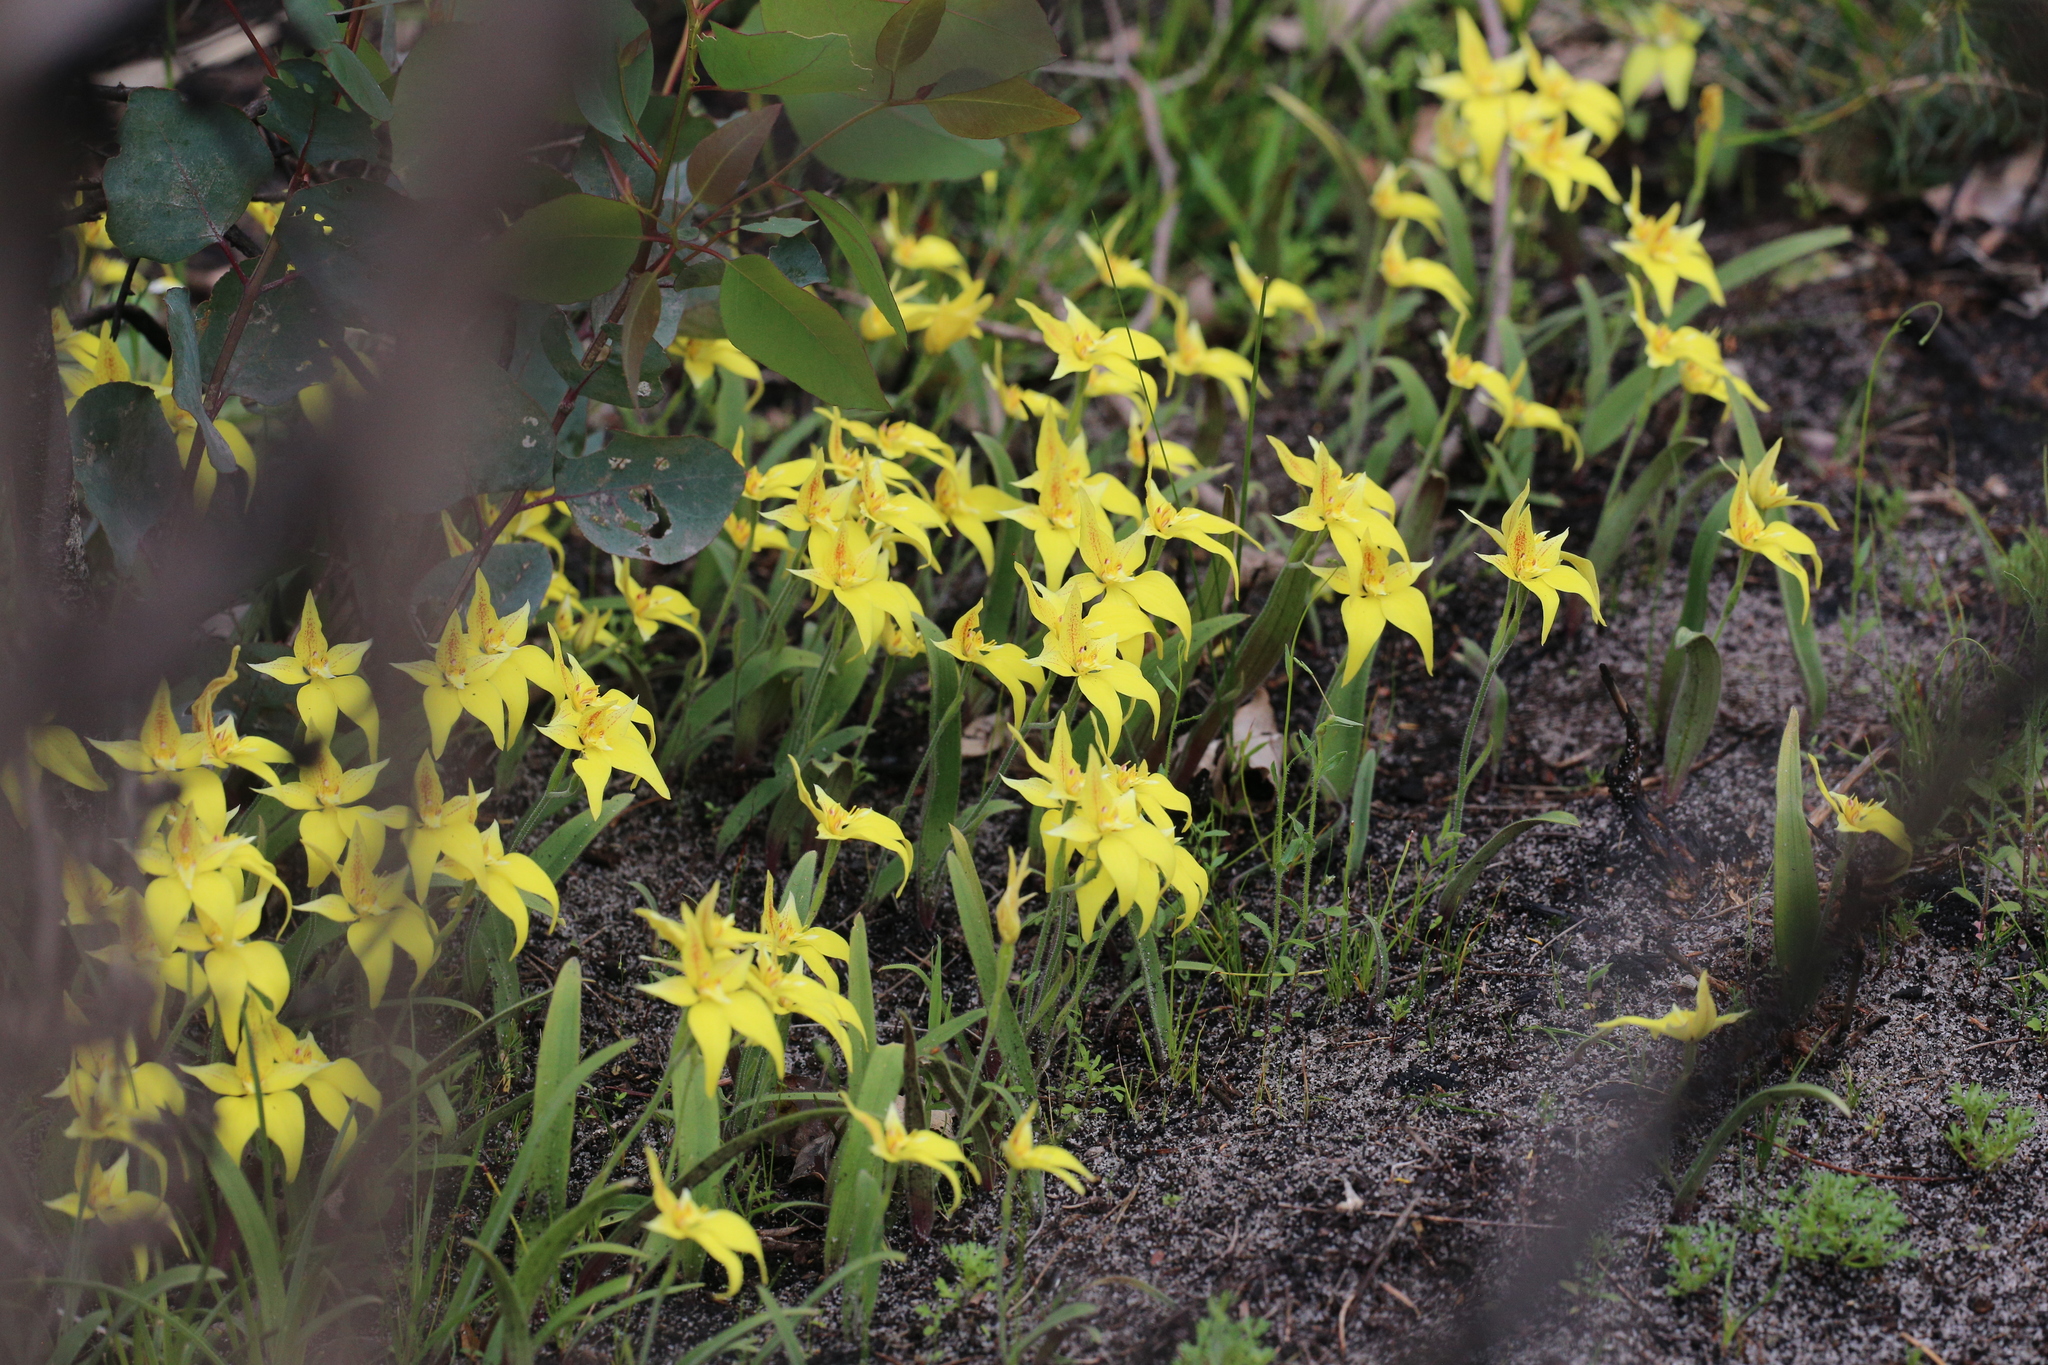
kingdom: Plantae
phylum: Tracheophyta
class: Liliopsida
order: Asparagales
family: Orchidaceae
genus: Caladenia
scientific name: Caladenia flava
